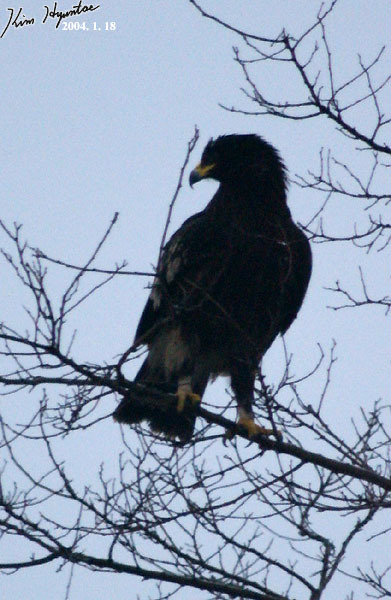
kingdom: Animalia
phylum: Chordata
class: Aves
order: Accipitriformes
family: Accipitridae
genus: Aquila
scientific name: Aquila clanga
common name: Greater spotted eagle
